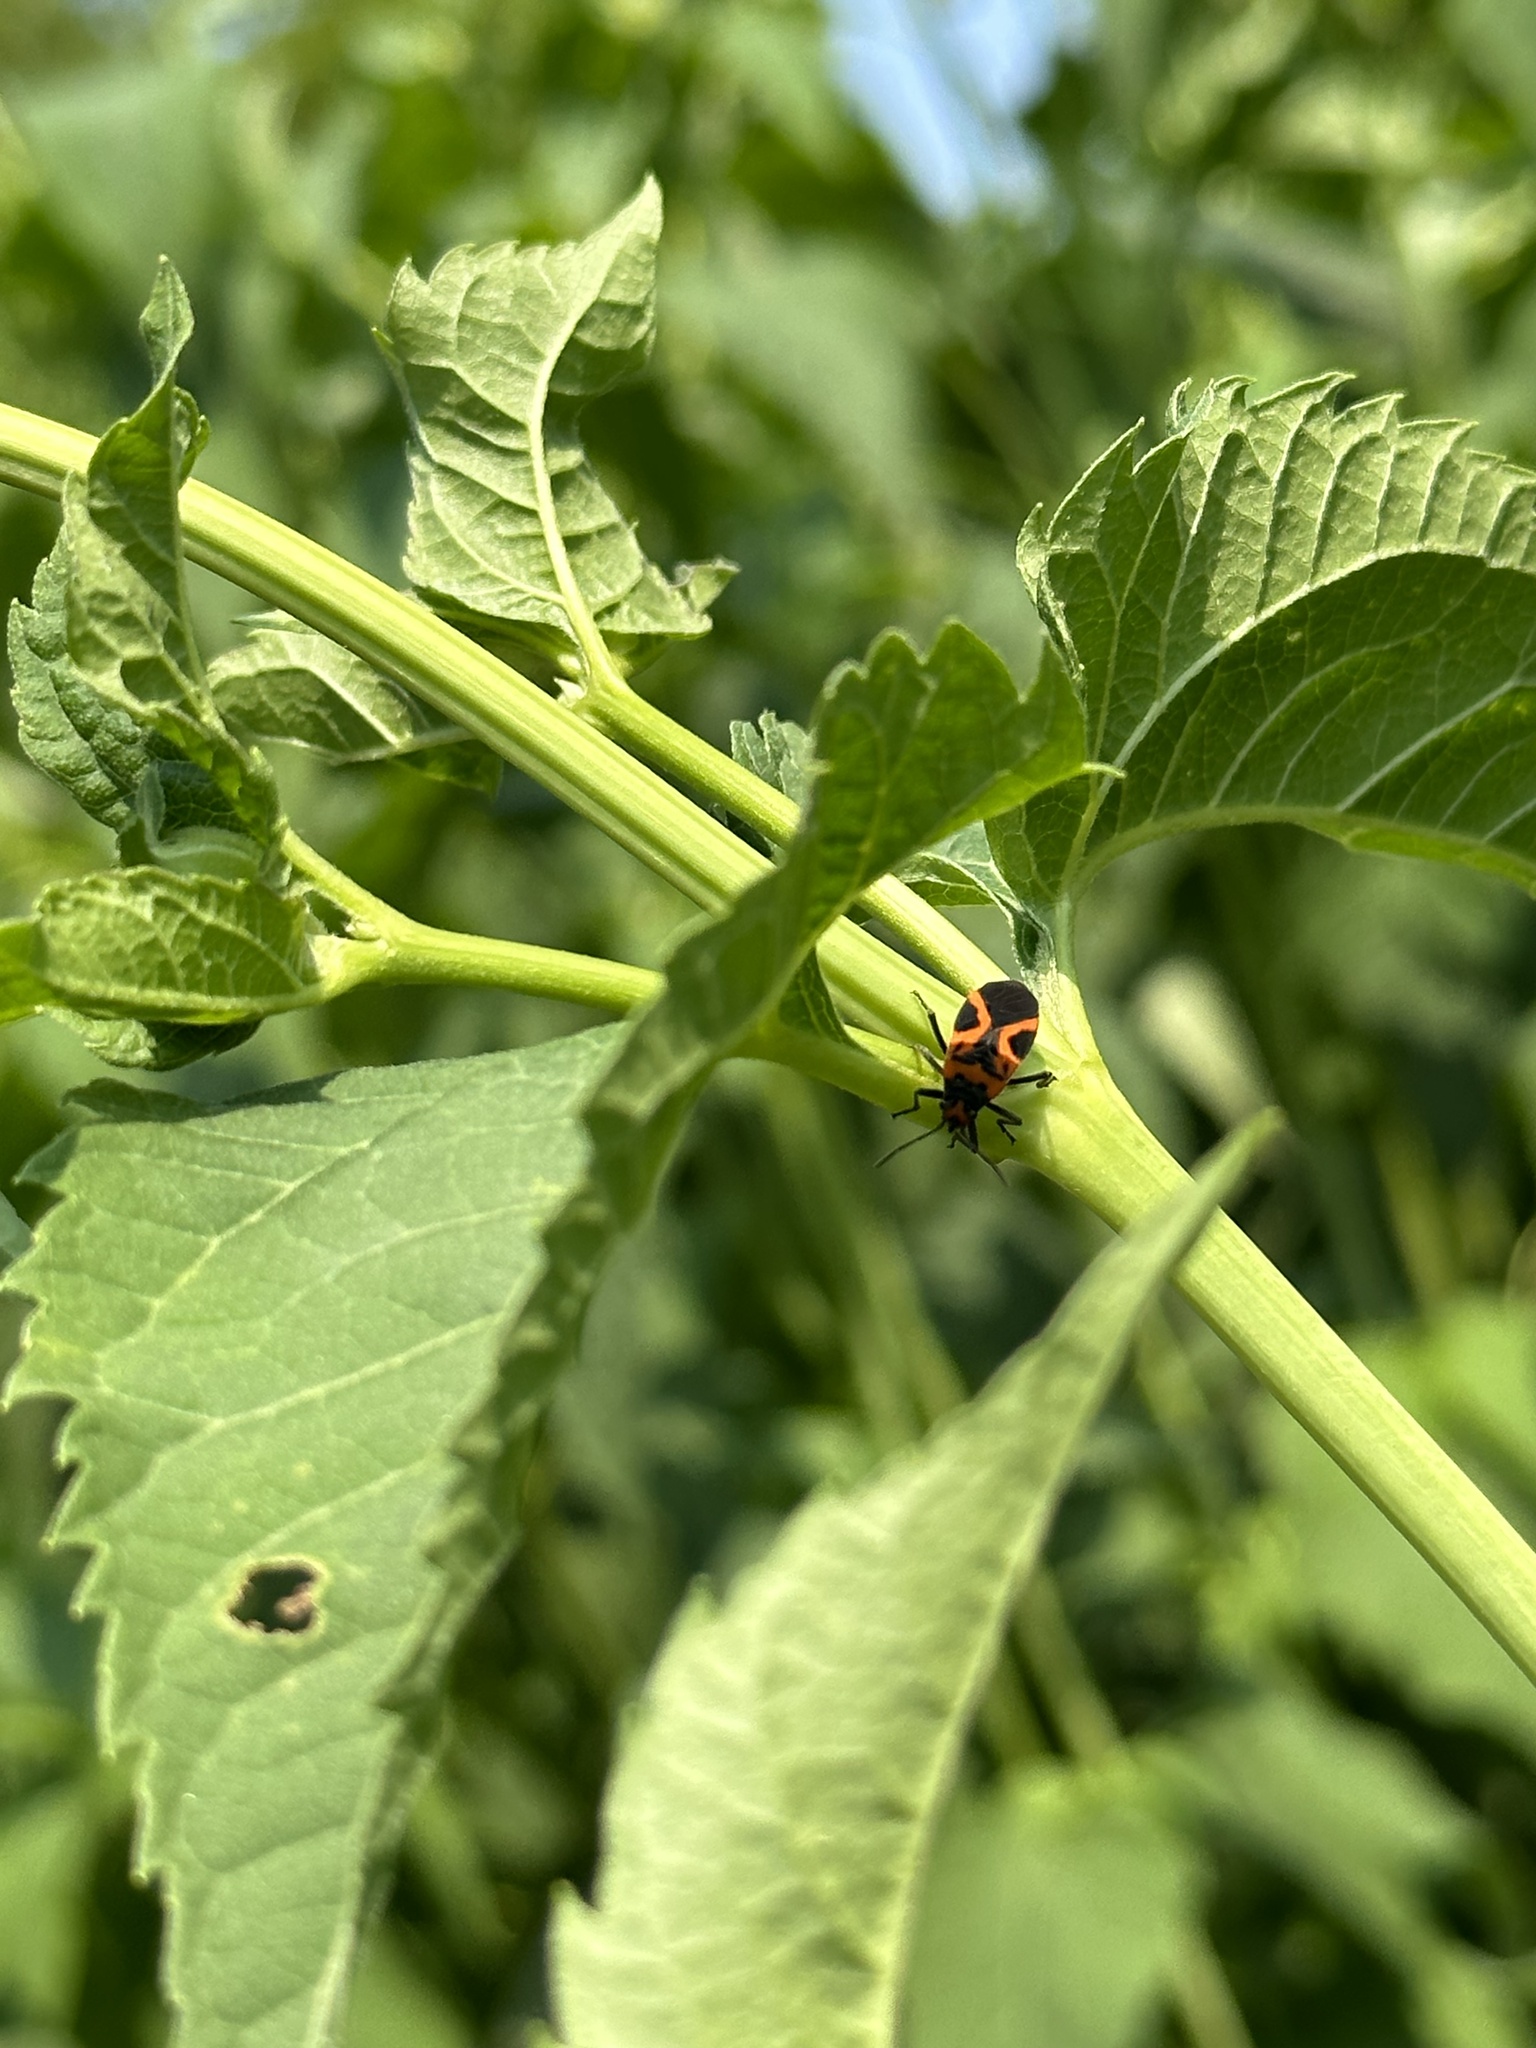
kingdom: Animalia
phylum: Arthropoda
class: Insecta
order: Hemiptera
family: Lygaeidae
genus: Lygaeus
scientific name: Lygaeus turcicus
